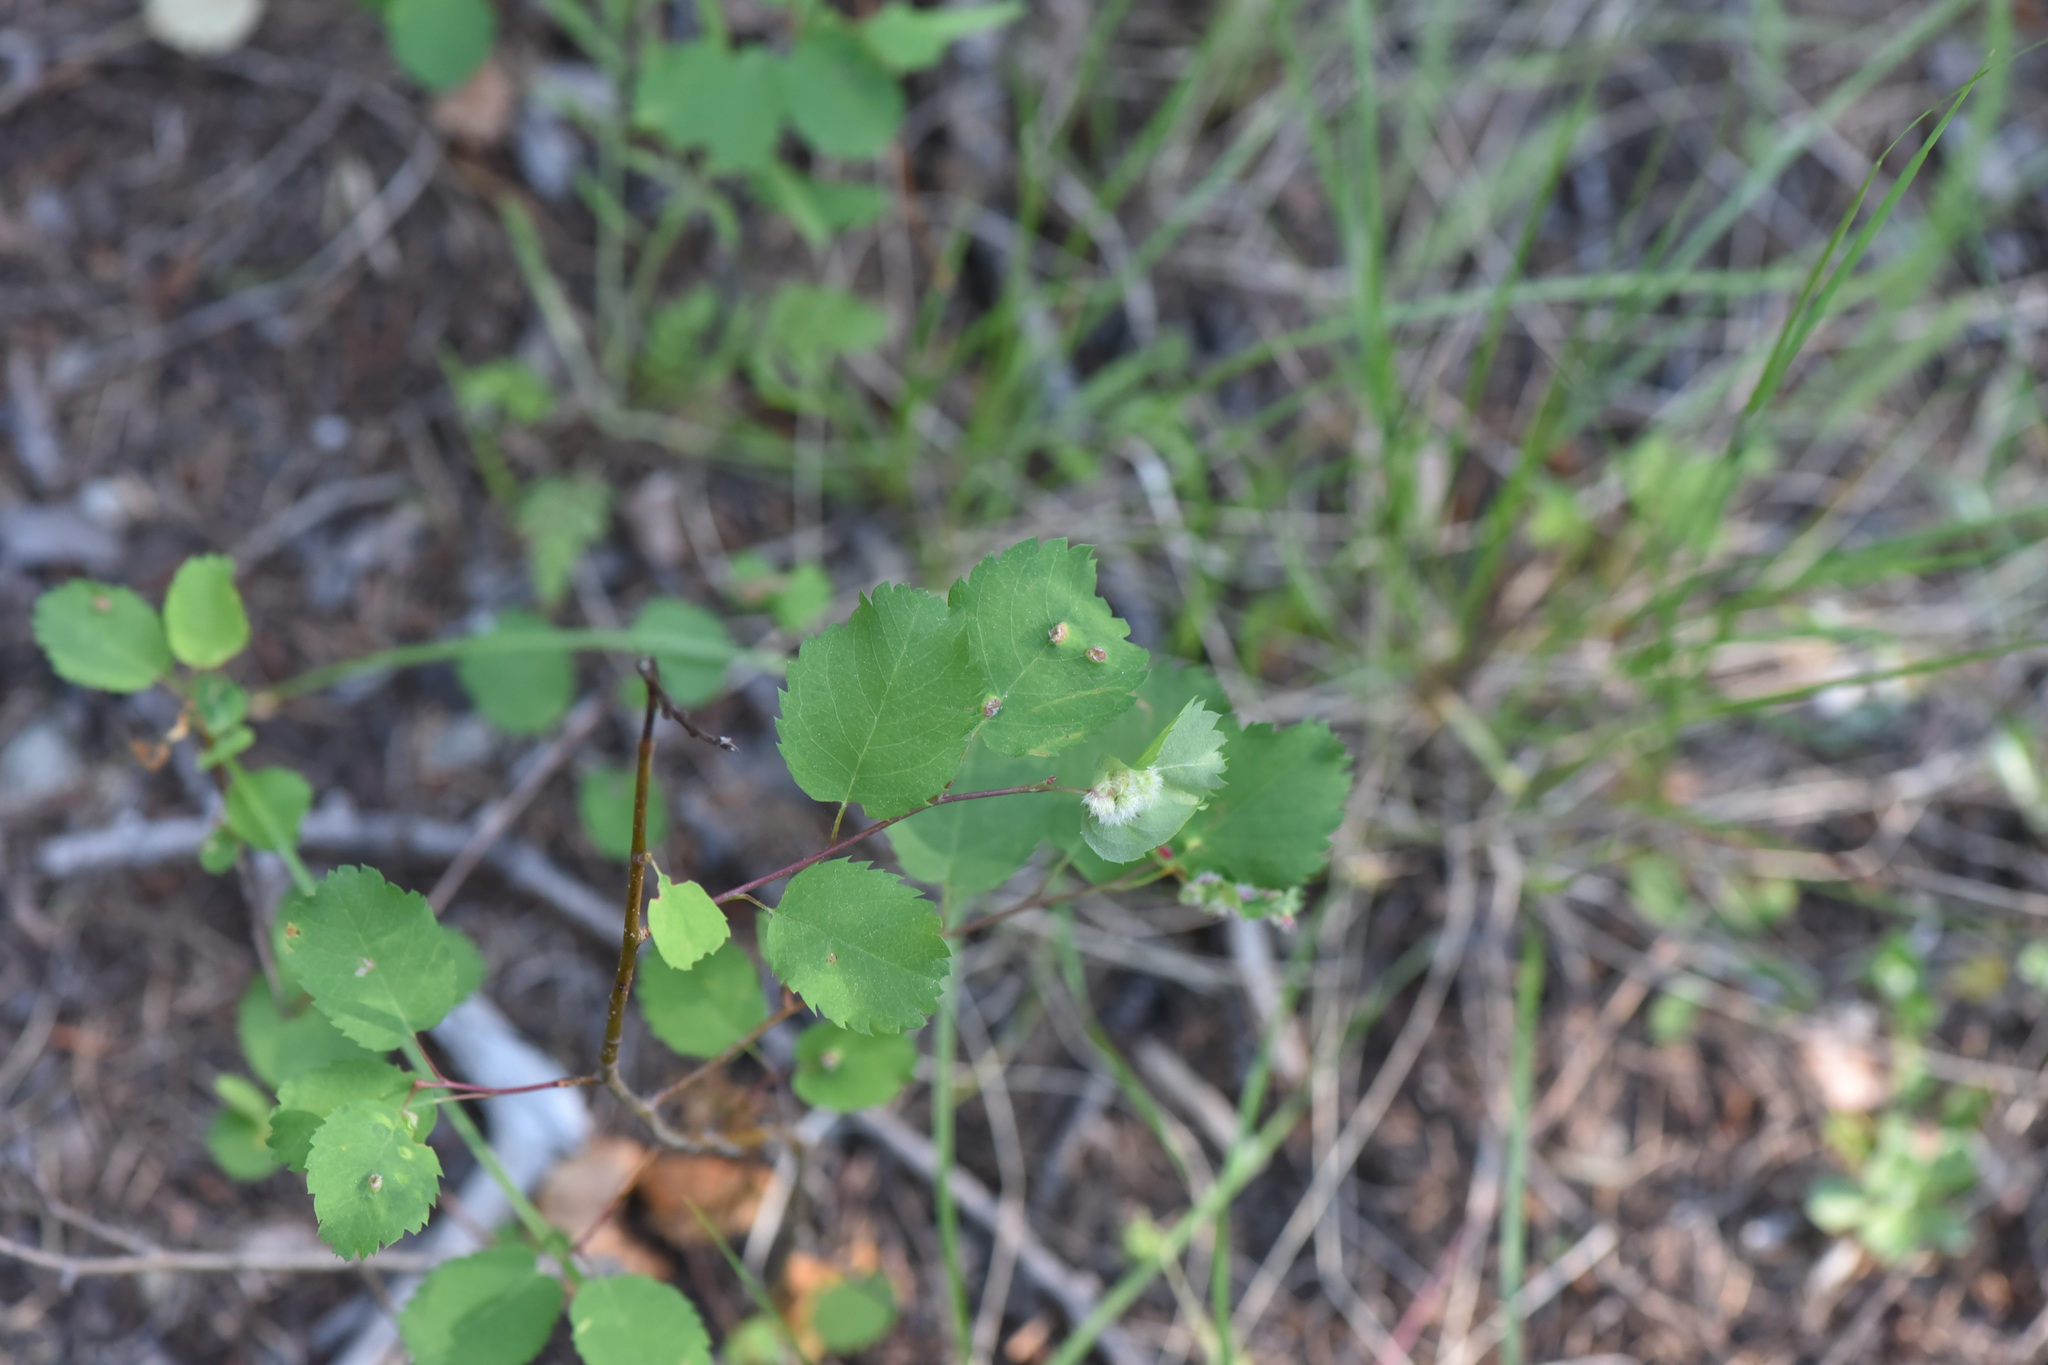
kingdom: Plantae
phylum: Tracheophyta
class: Magnoliopsida
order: Rosales
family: Rosaceae
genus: Amelanchier
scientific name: Amelanchier alnifolia
